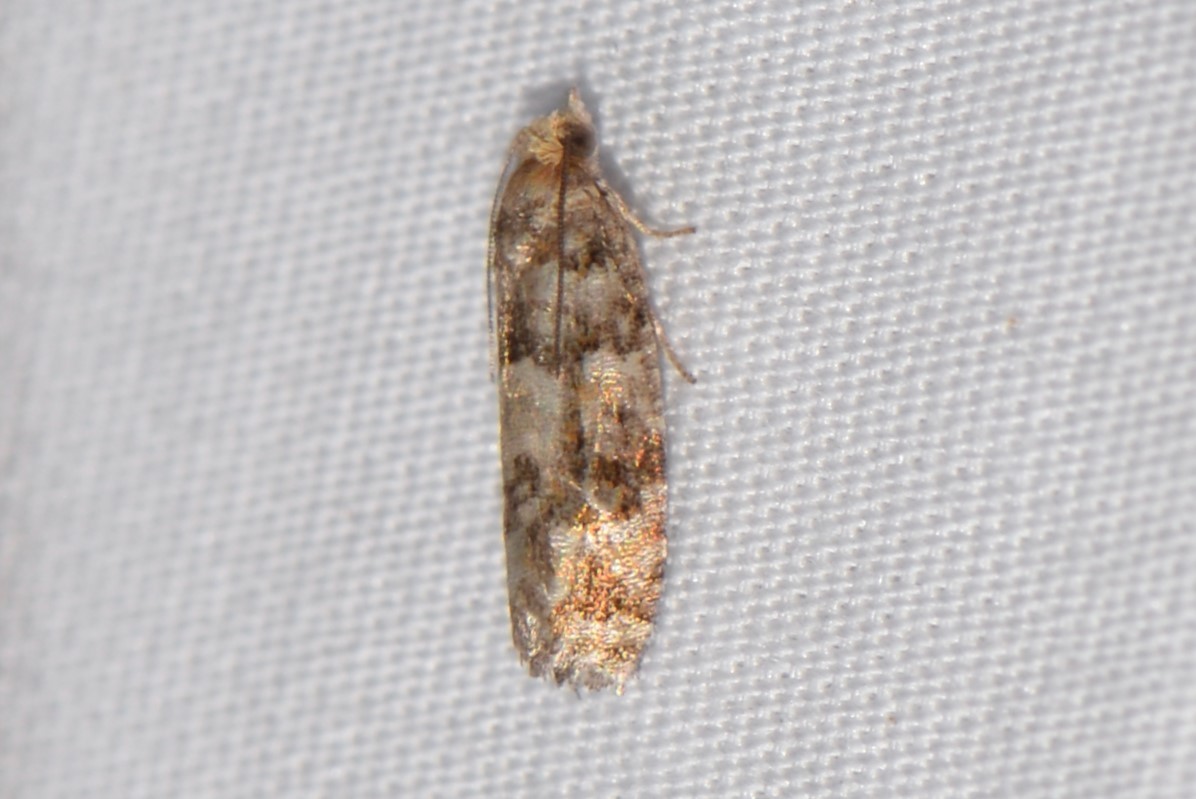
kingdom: Animalia
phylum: Arthropoda
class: Insecta
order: Lepidoptera
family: Tortricidae
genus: Eucopina
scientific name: Eucopina tocullionana
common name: White pinecone borer moth
